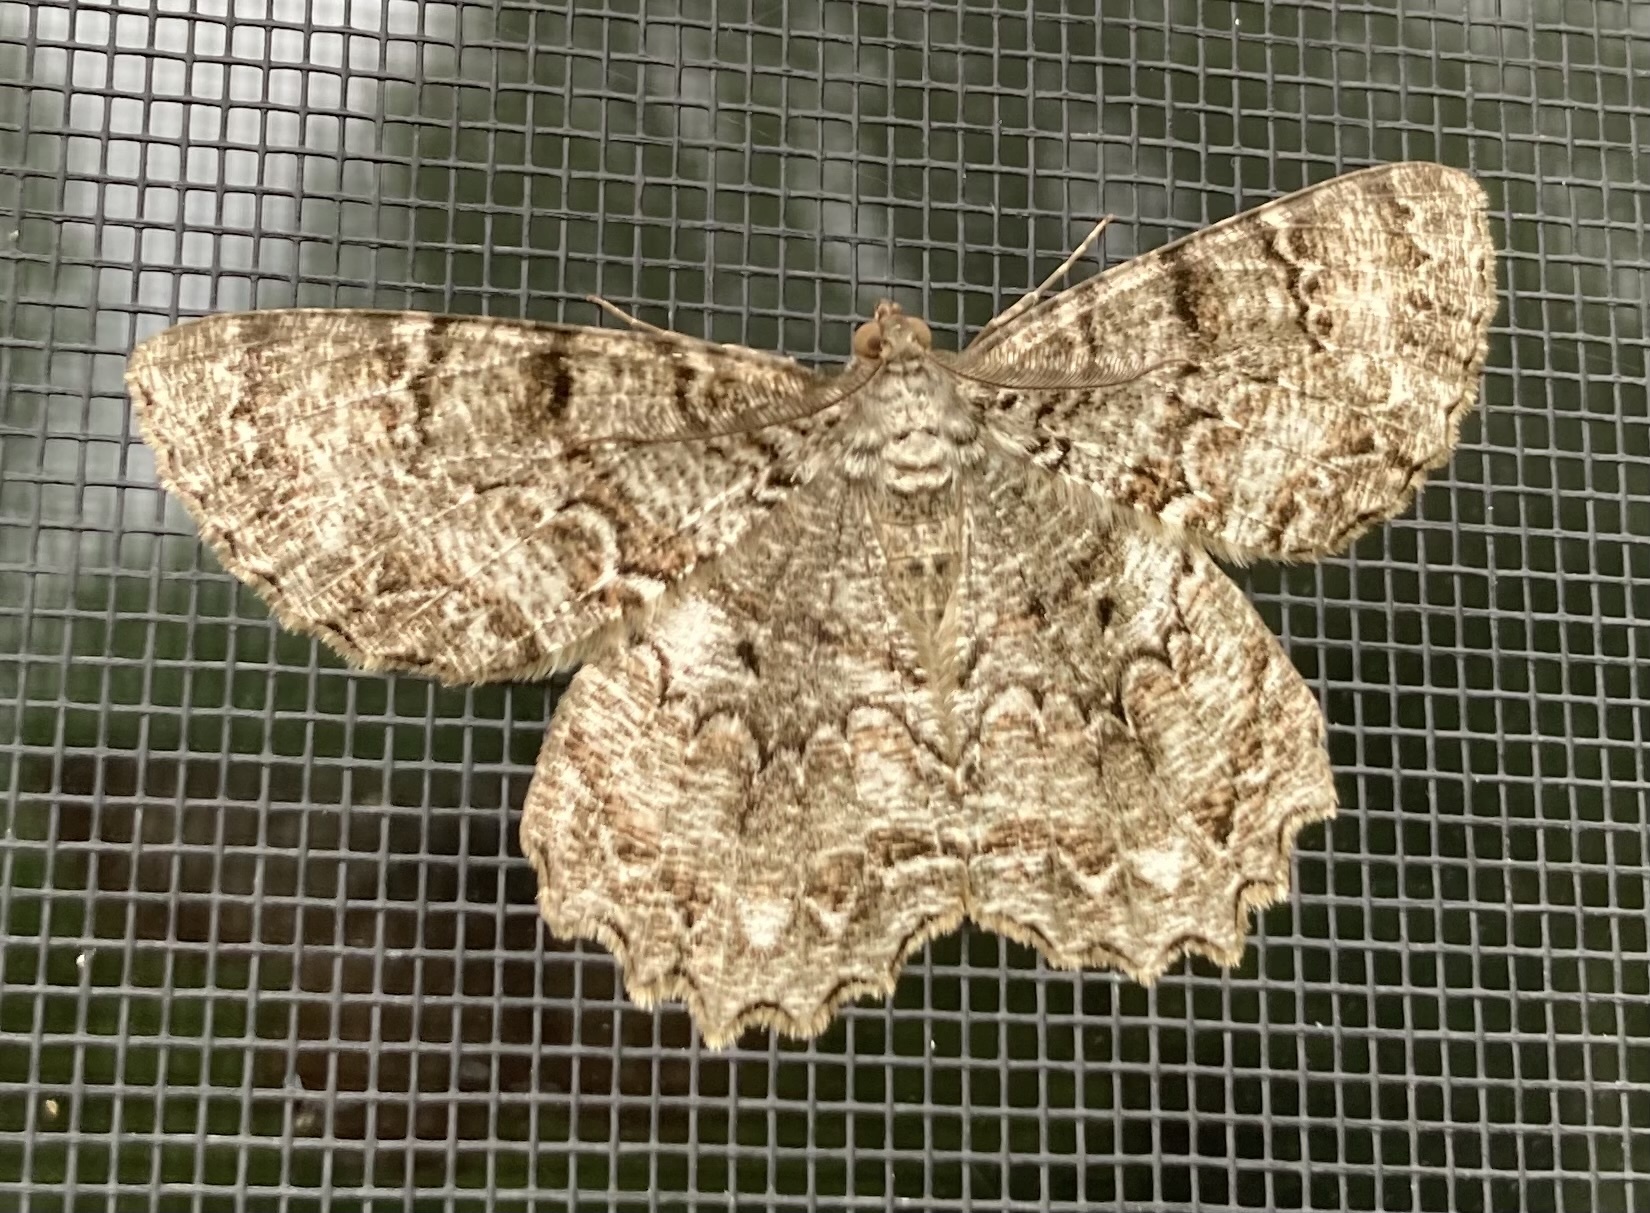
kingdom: Animalia
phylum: Arthropoda
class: Insecta
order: Lepidoptera
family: Geometridae
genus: Epimecis
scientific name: Epimecis hortaria
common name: Tulip-tree beauty
